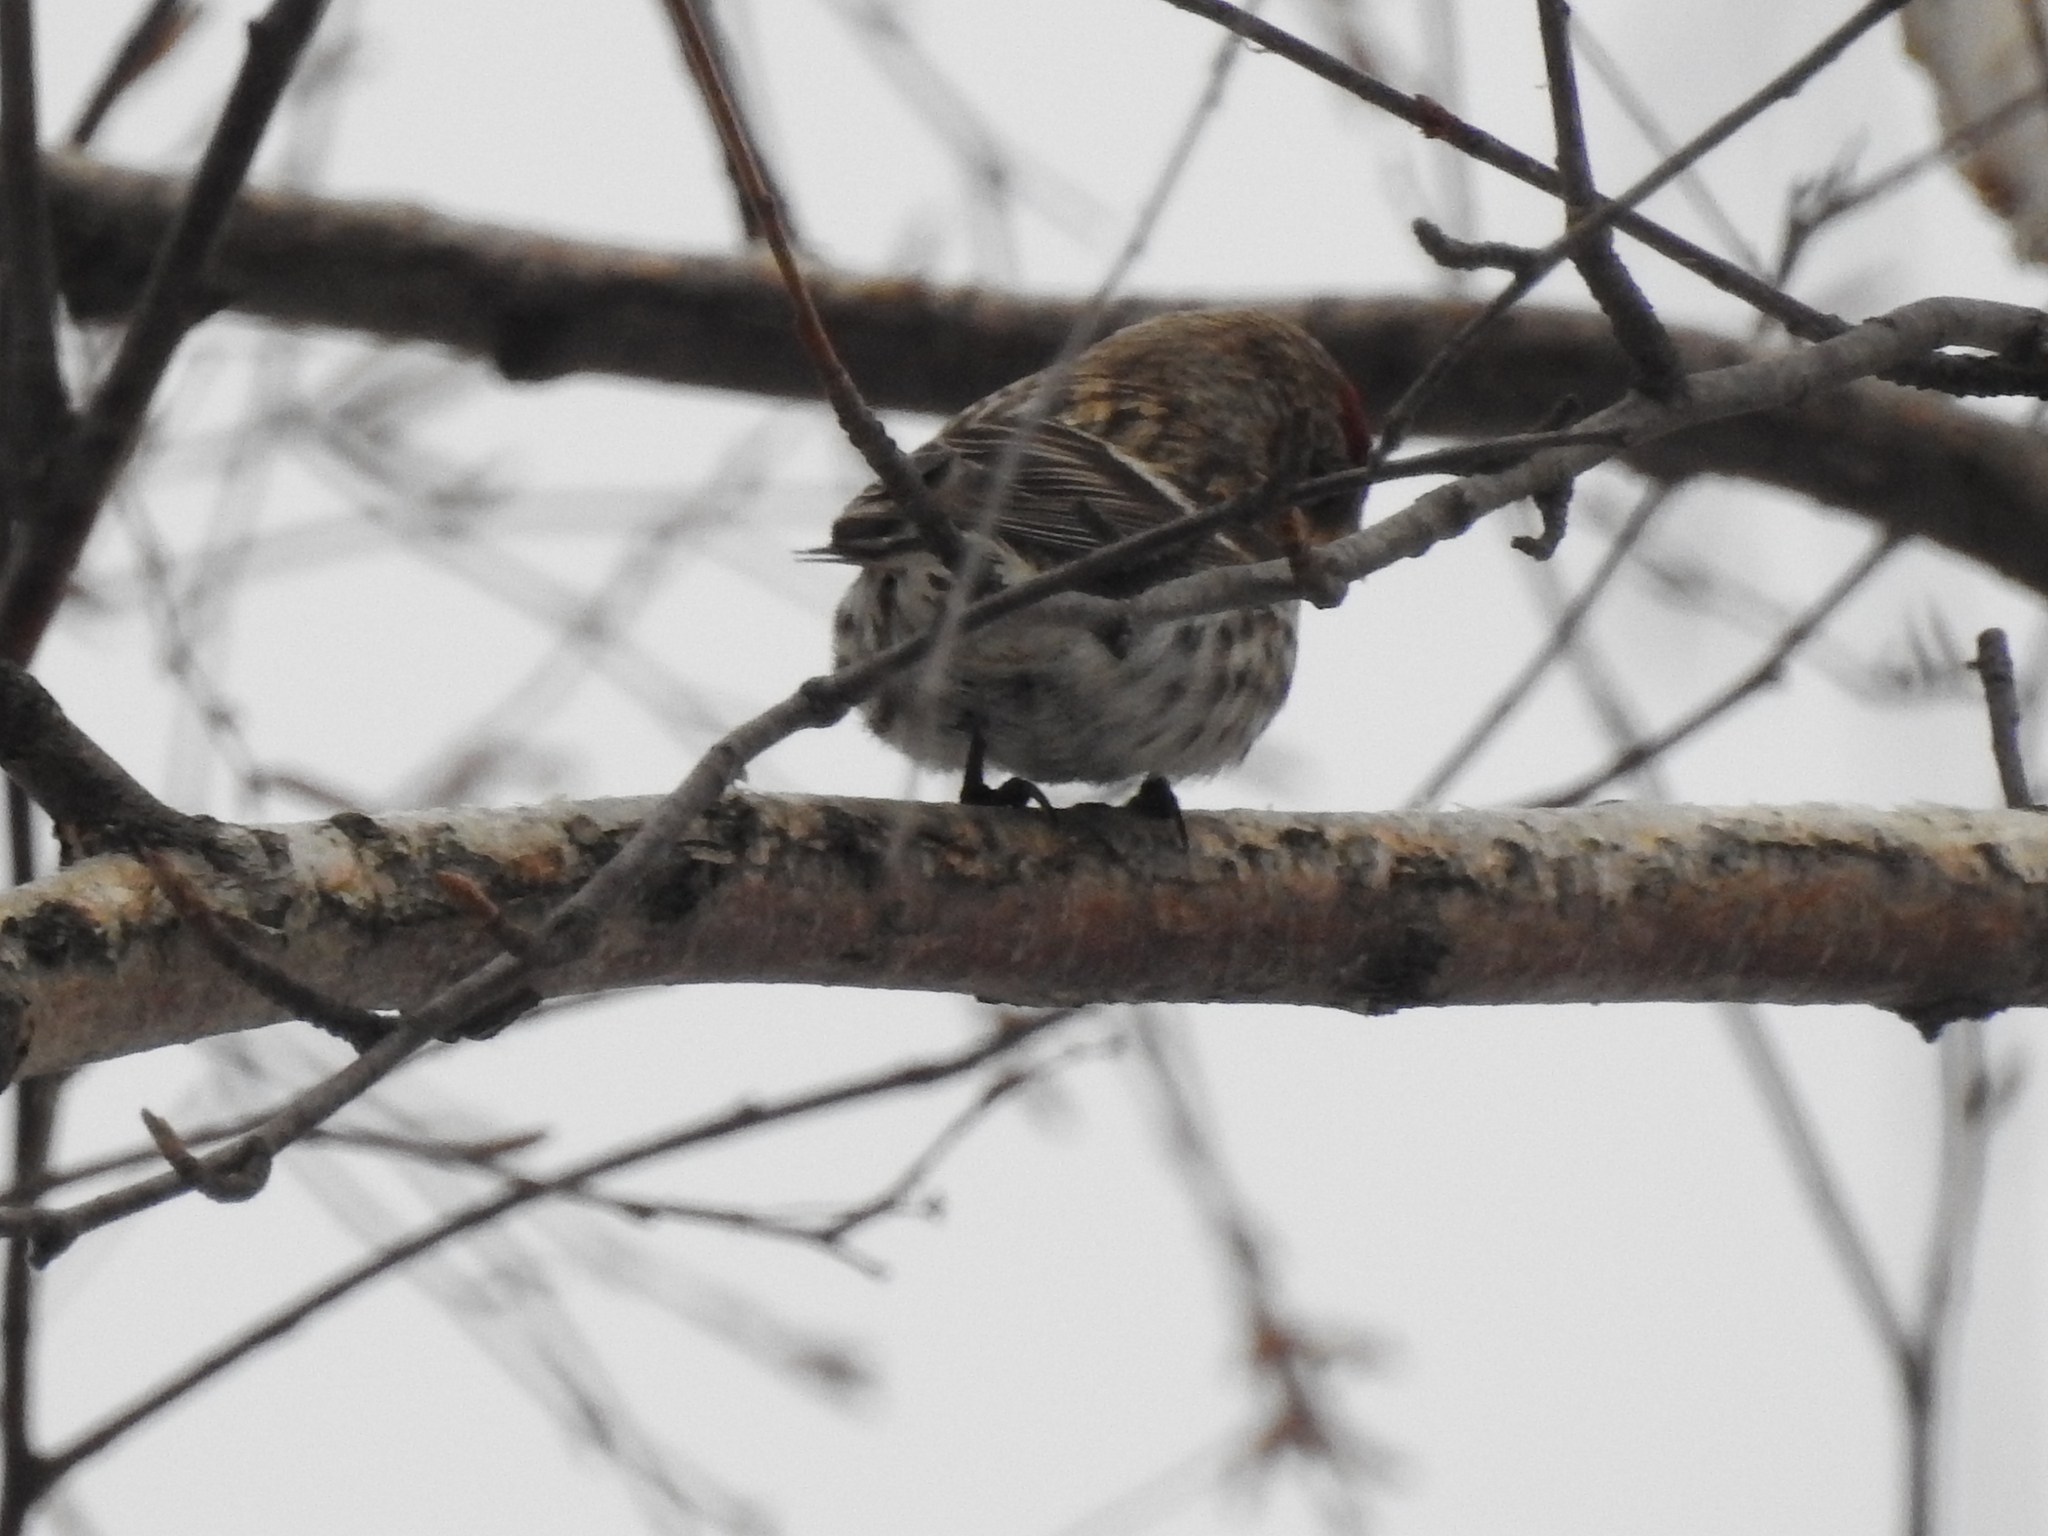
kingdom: Animalia
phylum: Chordata
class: Aves
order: Passeriformes
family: Fringillidae
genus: Acanthis
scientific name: Acanthis flammea
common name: Common redpoll
